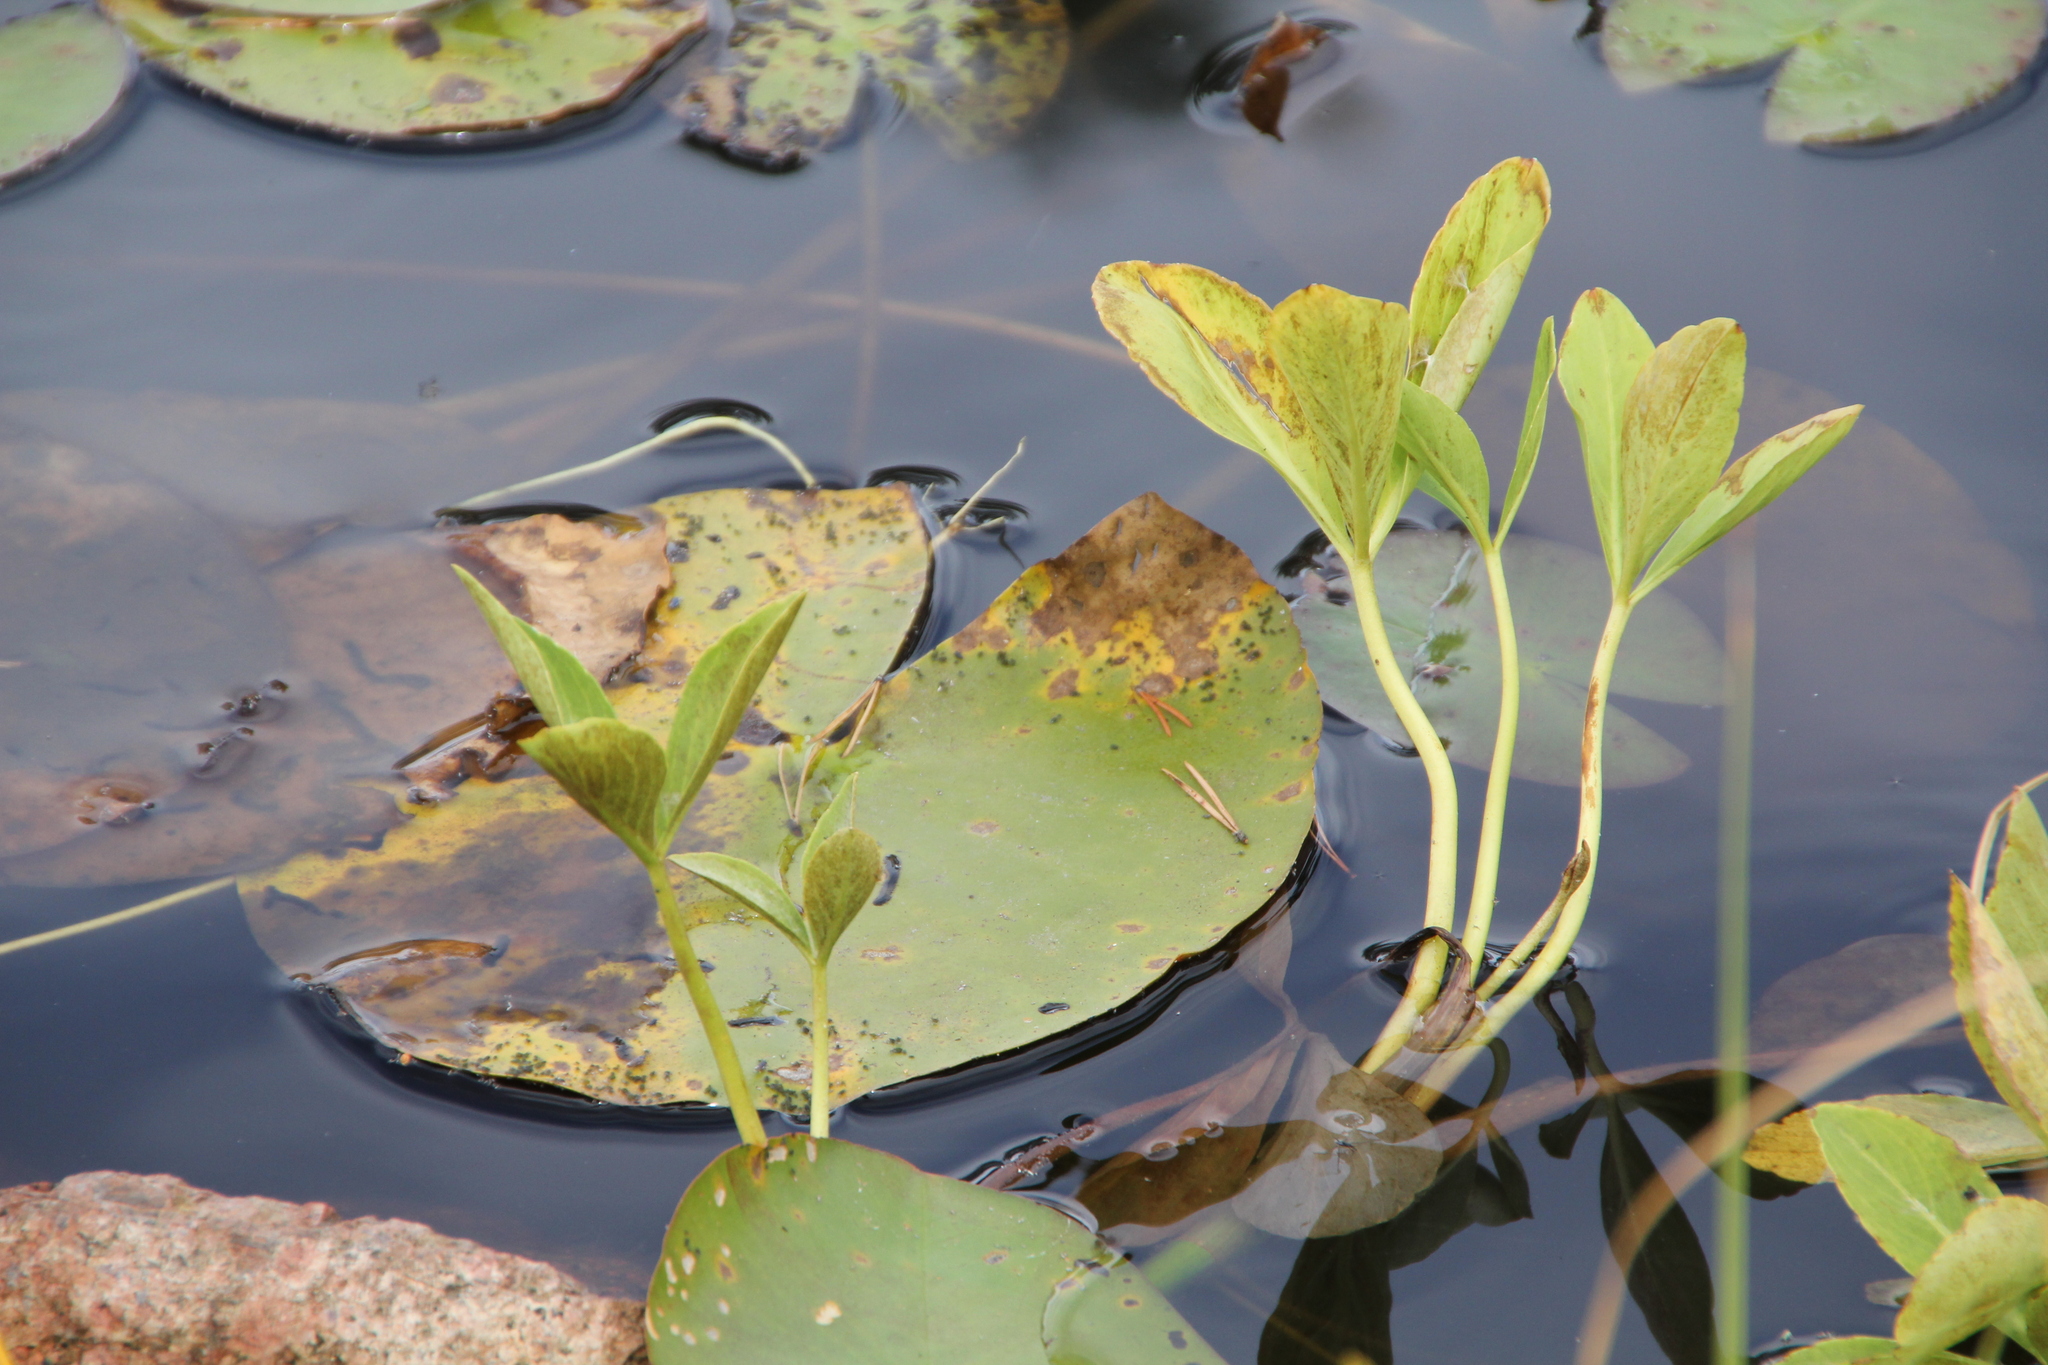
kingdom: Plantae
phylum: Tracheophyta
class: Magnoliopsida
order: Asterales
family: Menyanthaceae
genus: Menyanthes
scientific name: Menyanthes trifoliata
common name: Bogbean
